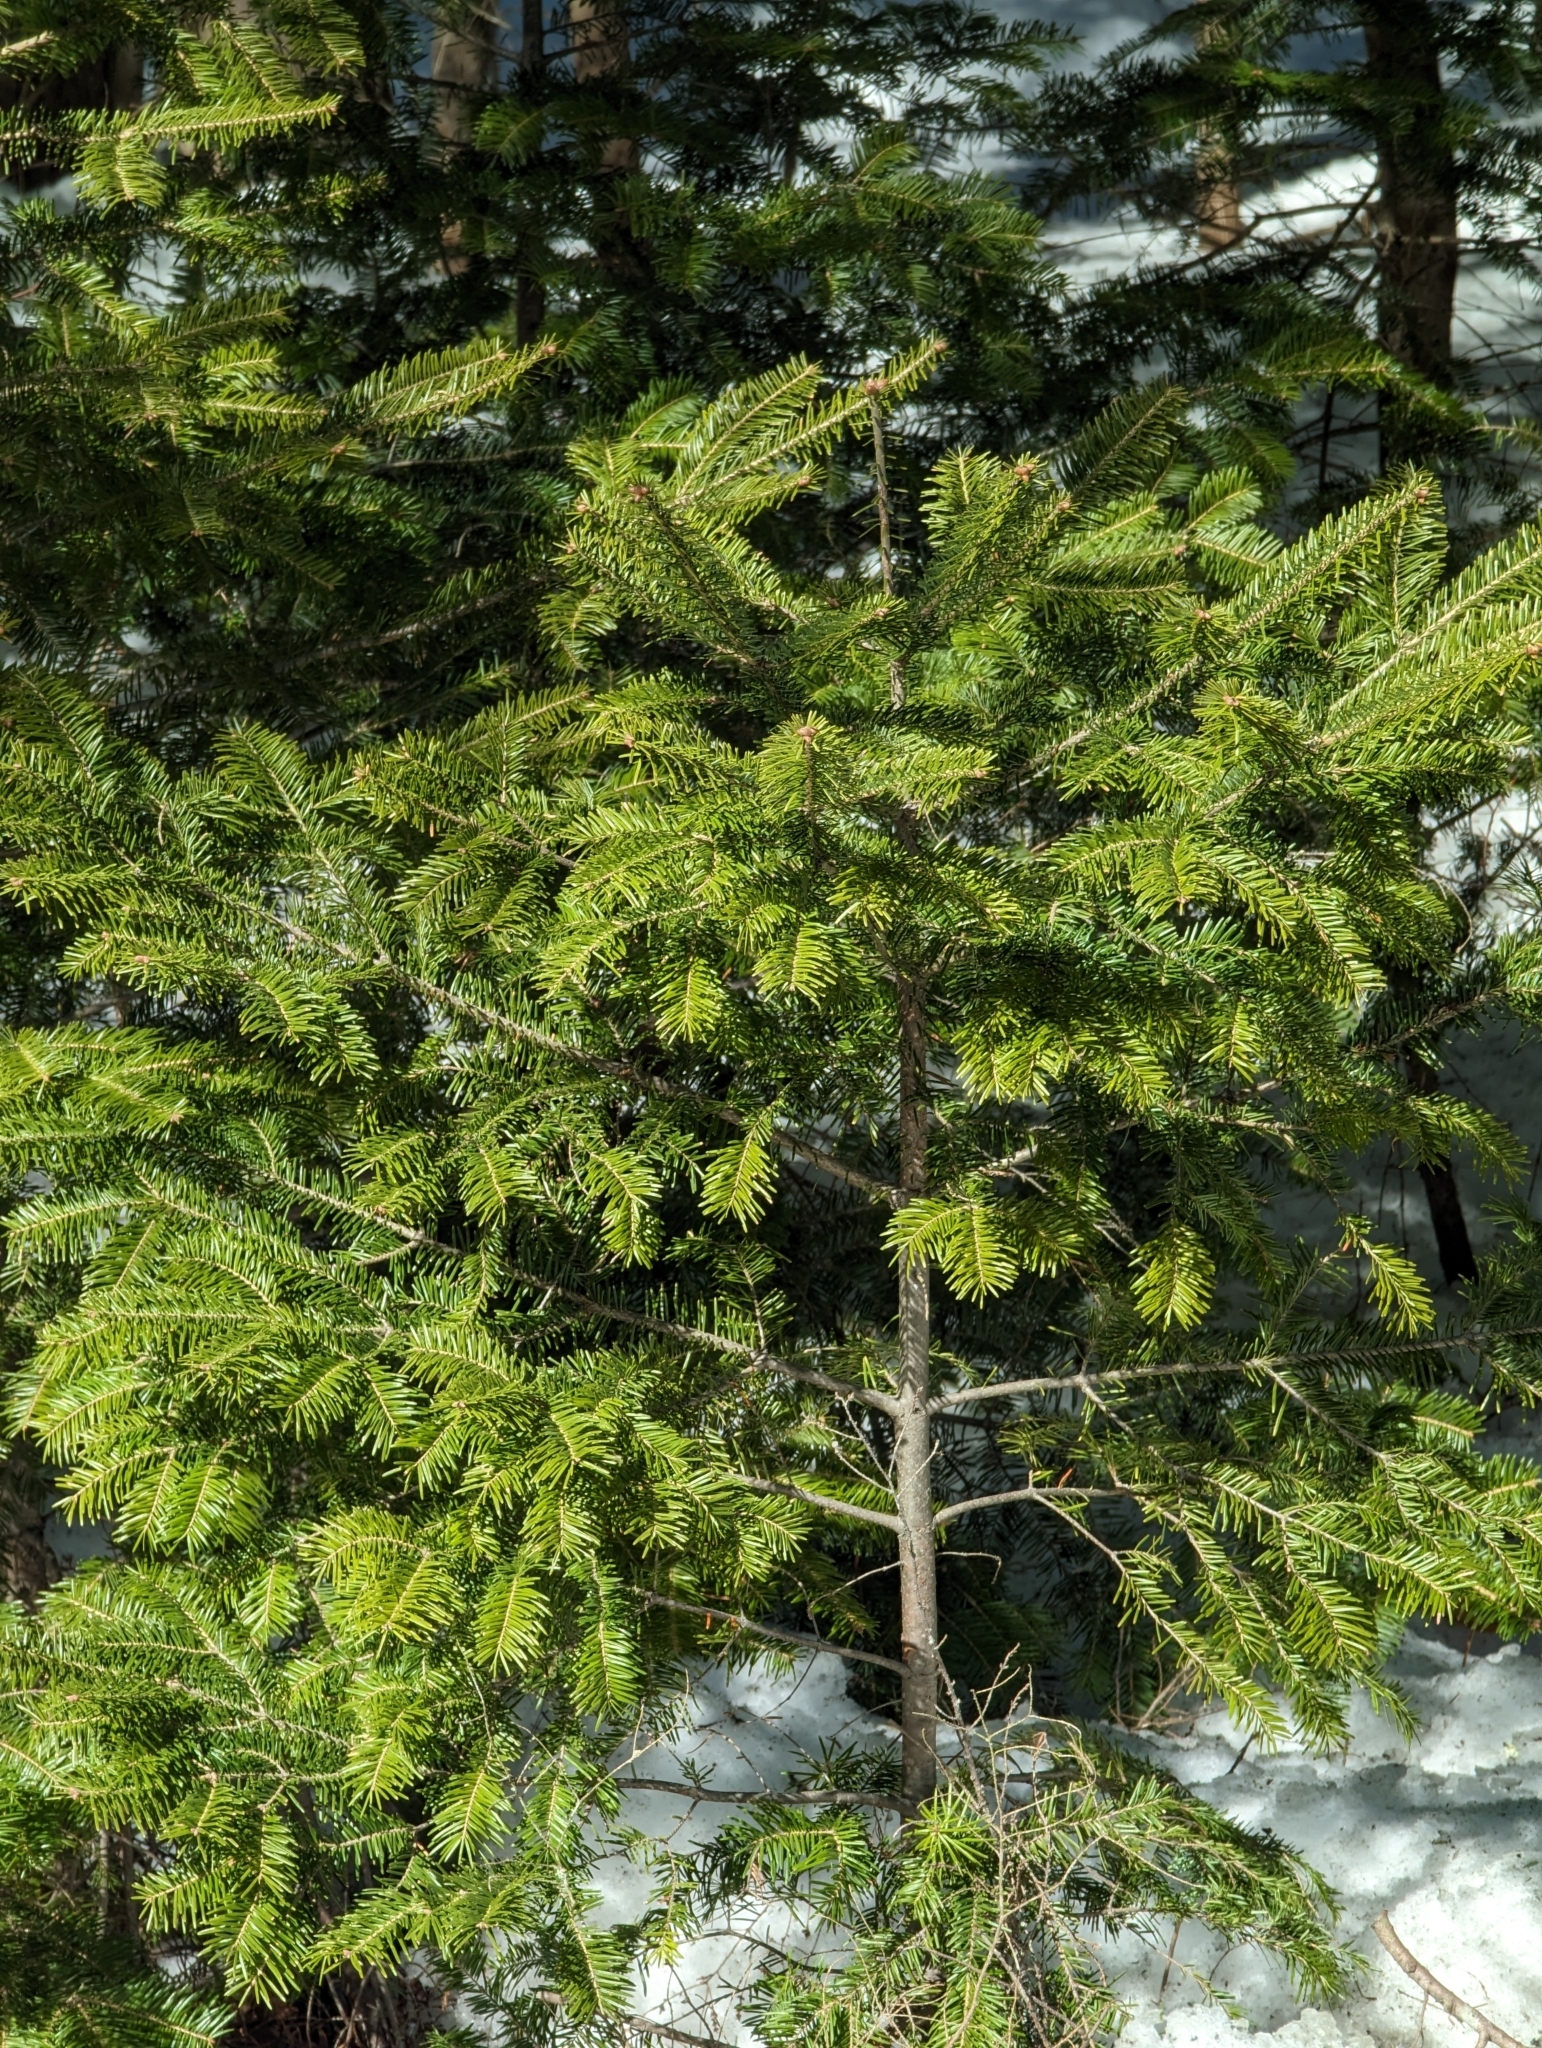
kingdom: Plantae
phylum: Tracheophyta
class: Pinopsida
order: Pinales
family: Pinaceae
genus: Abies
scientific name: Abies balsamea
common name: Balsam fir
